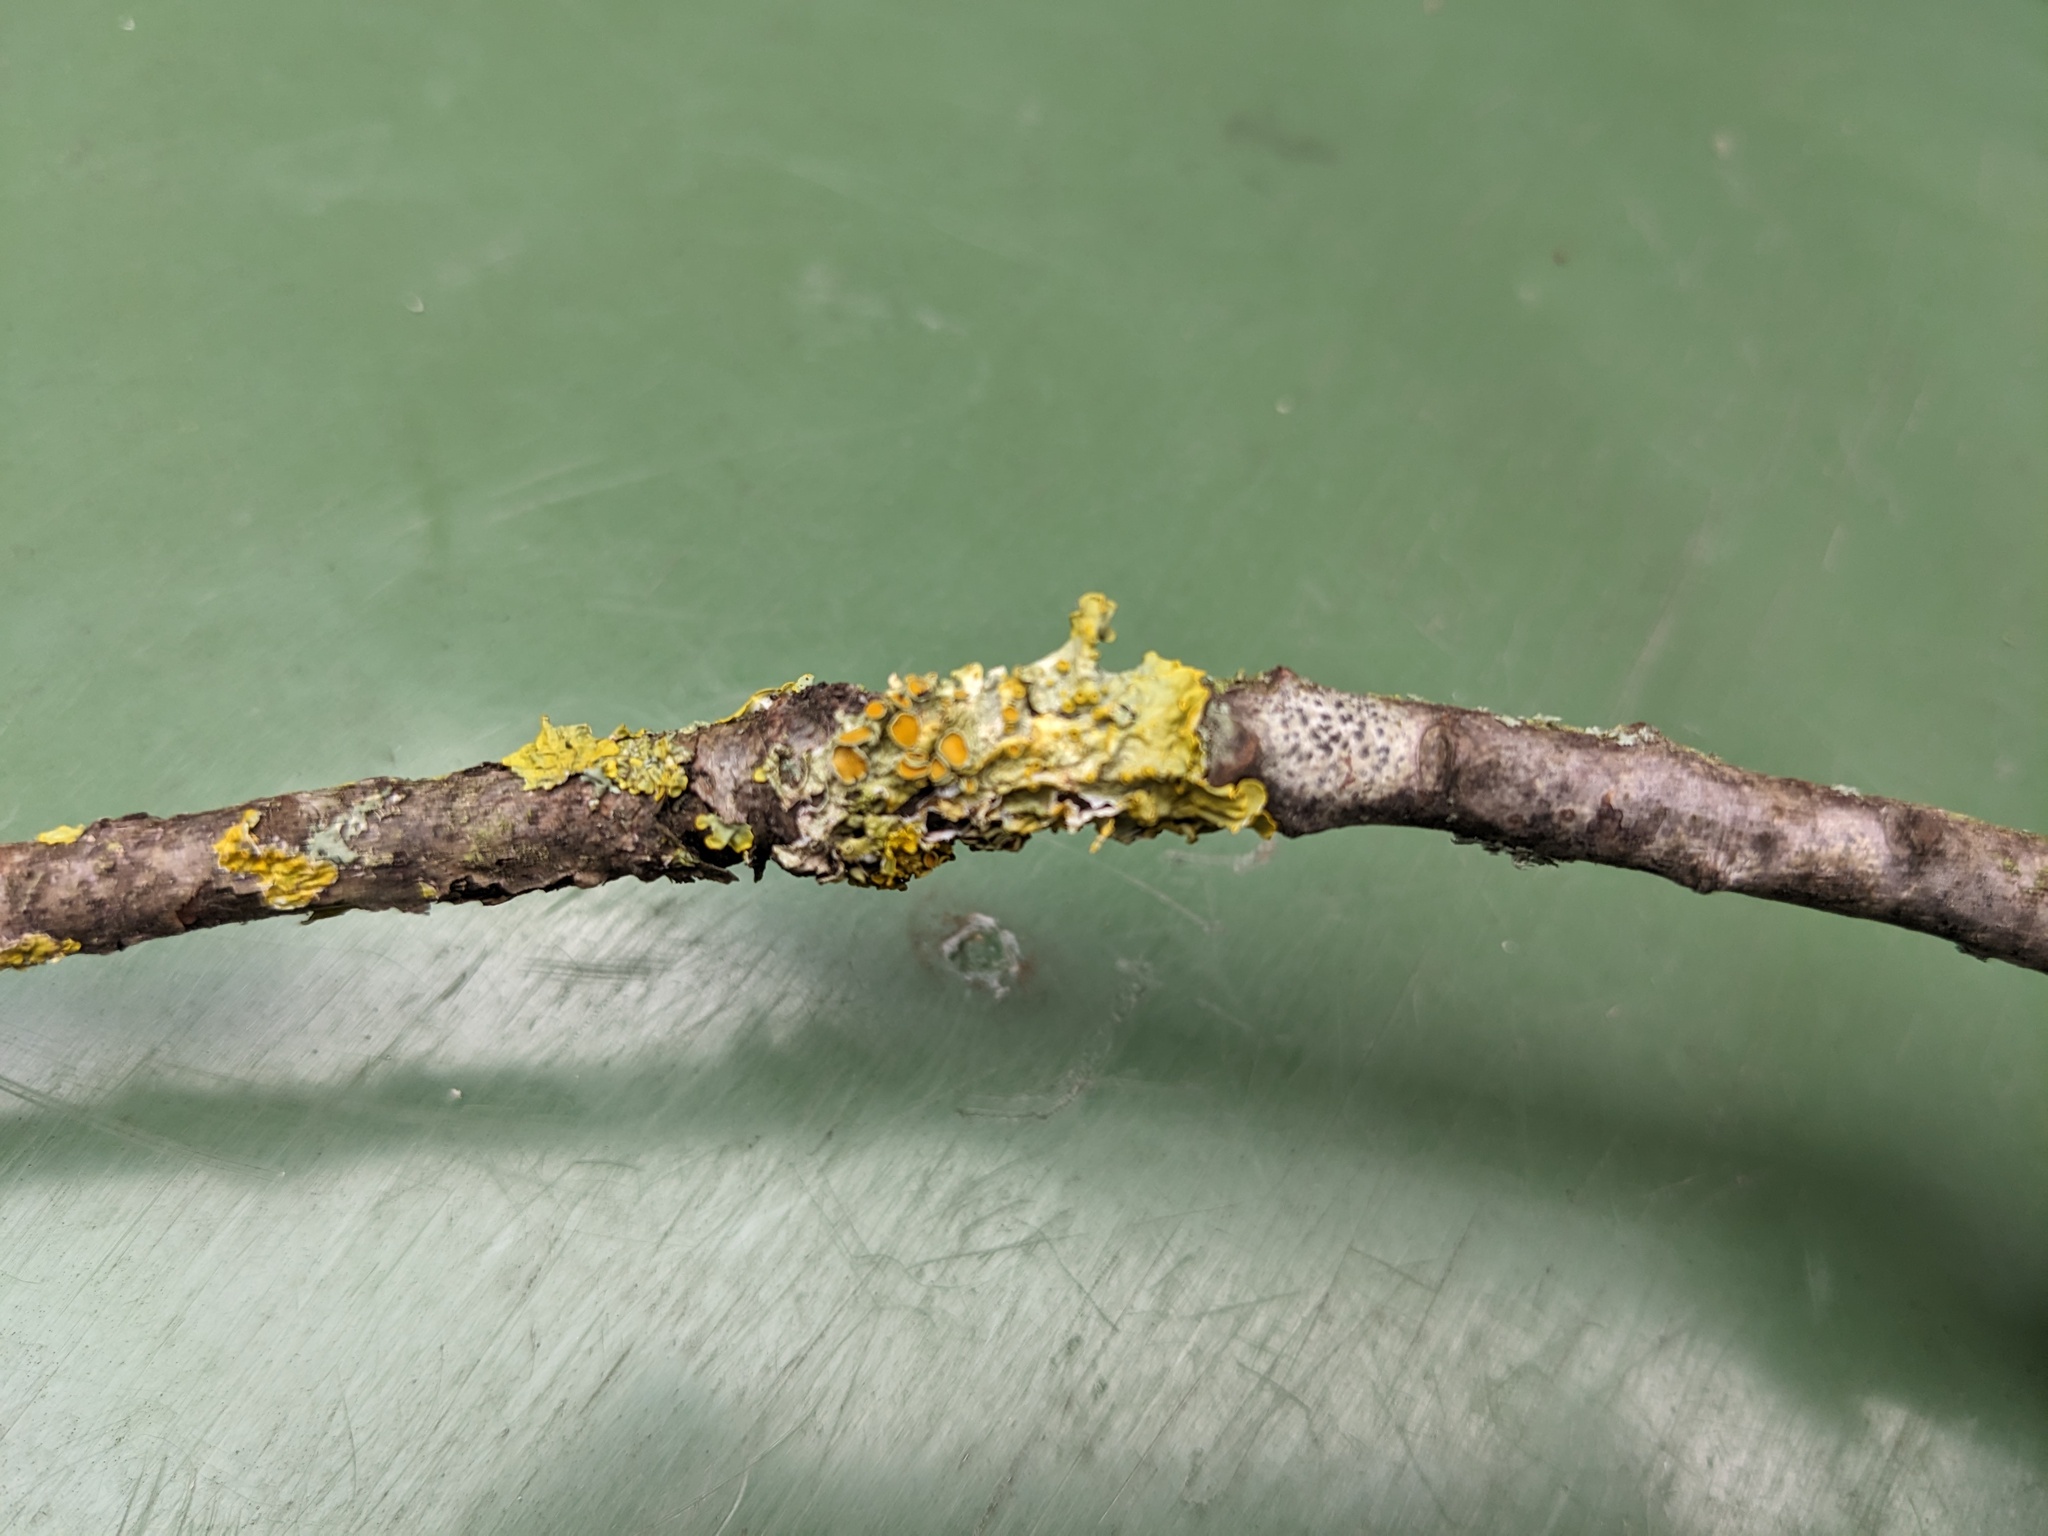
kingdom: Fungi
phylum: Ascomycota
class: Lecanoromycetes
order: Teloschistales
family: Teloschistaceae
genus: Xanthoria
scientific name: Xanthoria parietina
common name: Common orange lichen
